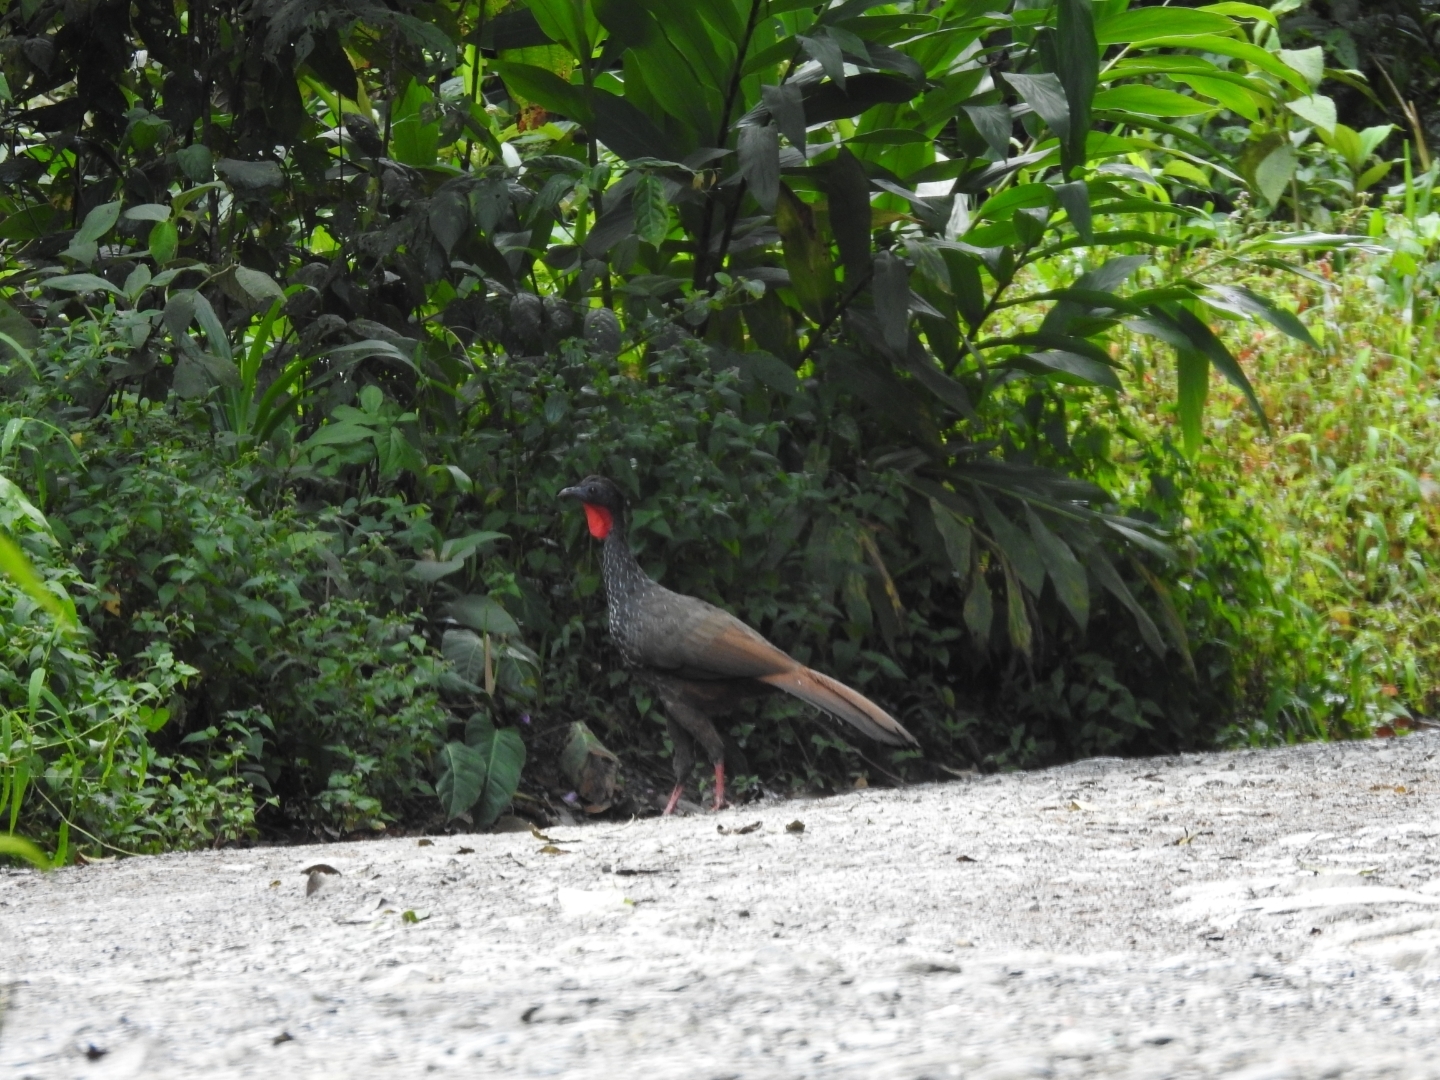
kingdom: Animalia
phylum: Chordata
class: Aves
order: Galliformes
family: Cracidae
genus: Penelope
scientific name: Penelope perspicax
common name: Cauca guan
